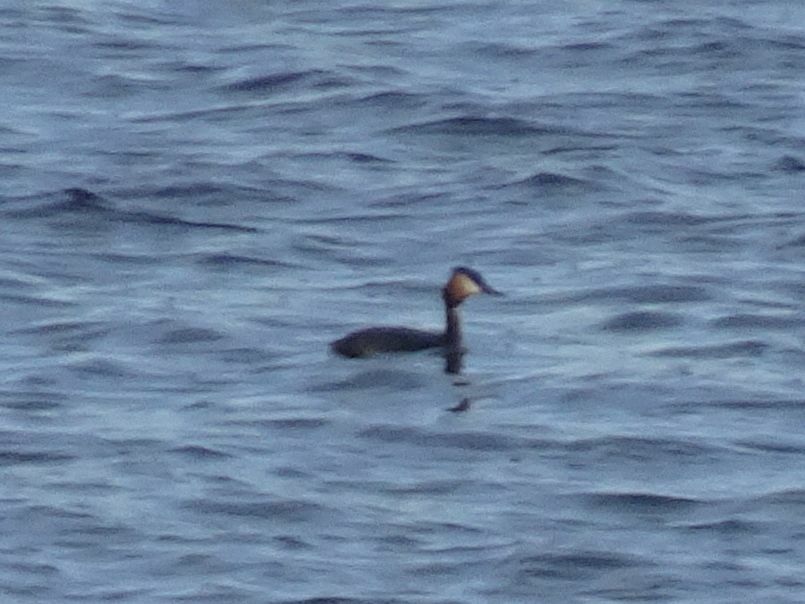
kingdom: Animalia
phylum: Chordata
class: Aves
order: Podicipediformes
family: Podicipedidae
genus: Podiceps
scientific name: Podiceps cristatus
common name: Great crested grebe
